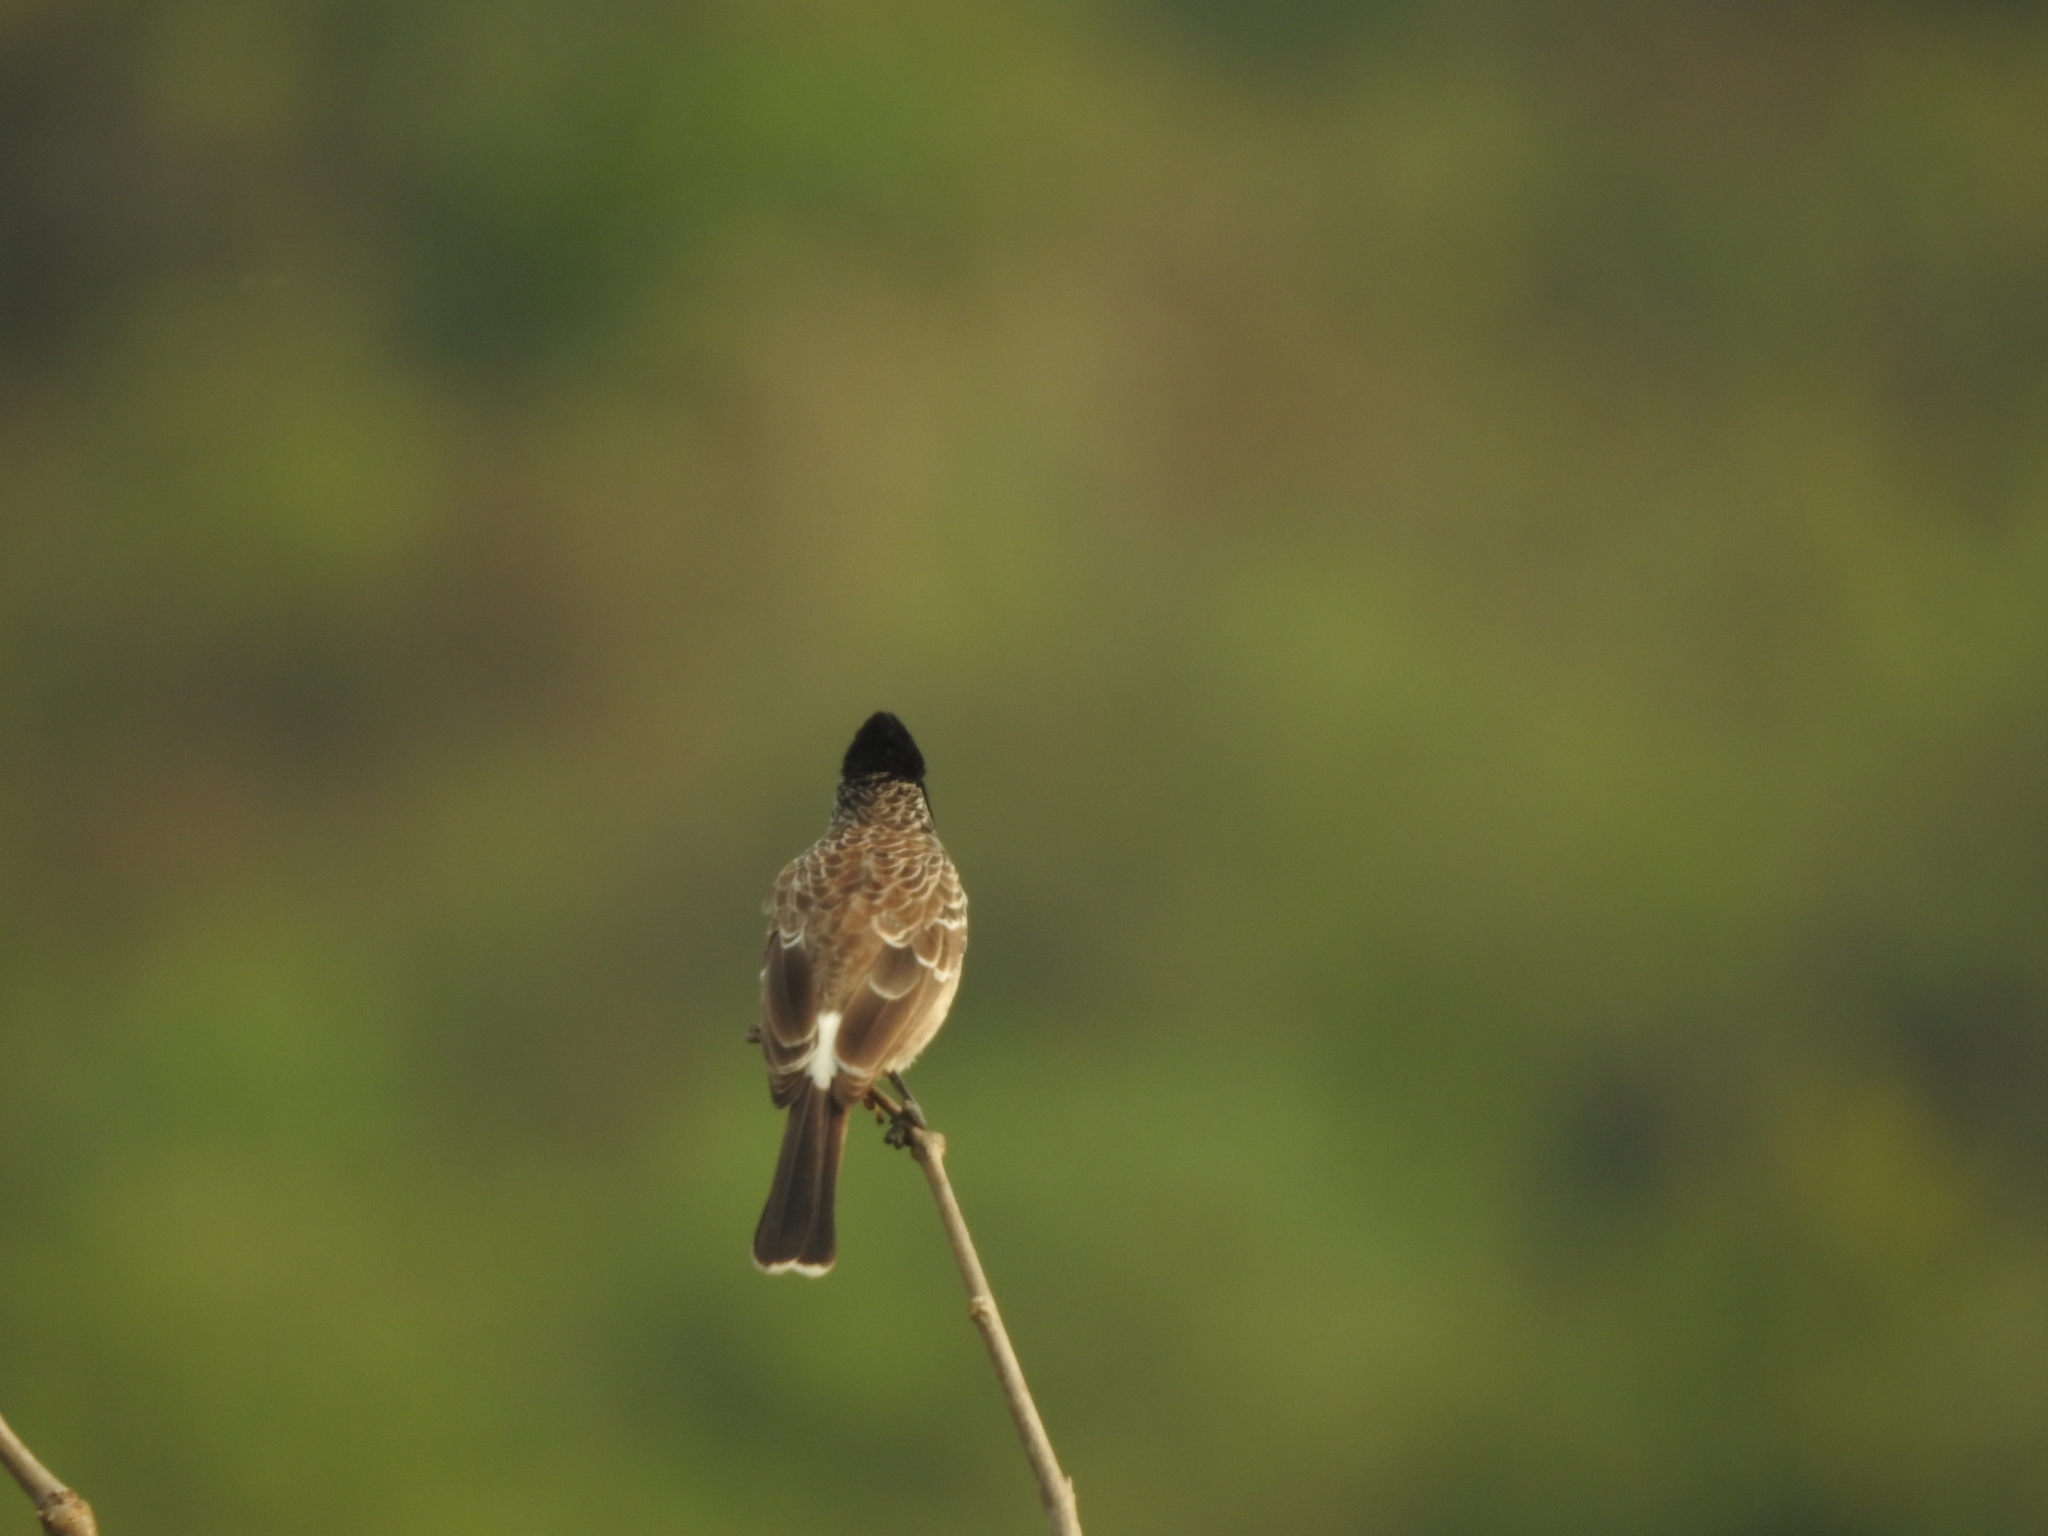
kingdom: Animalia
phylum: Chordata
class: Aves
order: Passeriformes
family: Pycnonotidae
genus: Pycnonotus
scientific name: Pycnonotus cafer
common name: Red-vented bulbul
